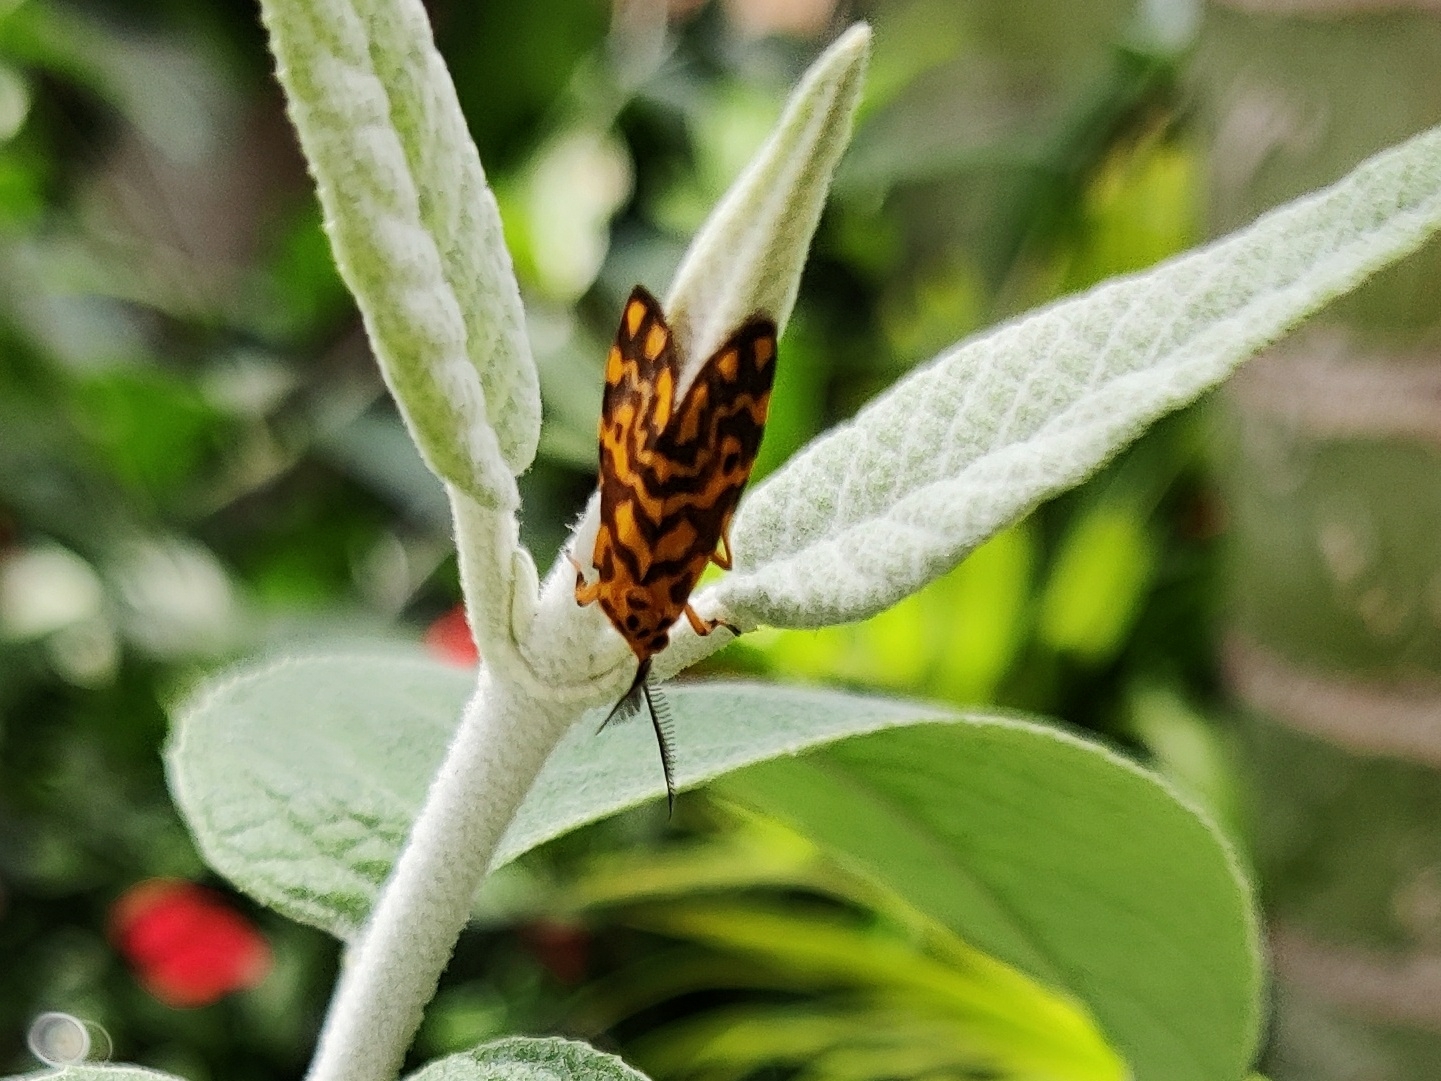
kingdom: Animalia
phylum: Arthropoda
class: Insecta
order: Lepidoptera
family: Erebidae
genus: Nepita
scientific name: Nepita conferta
